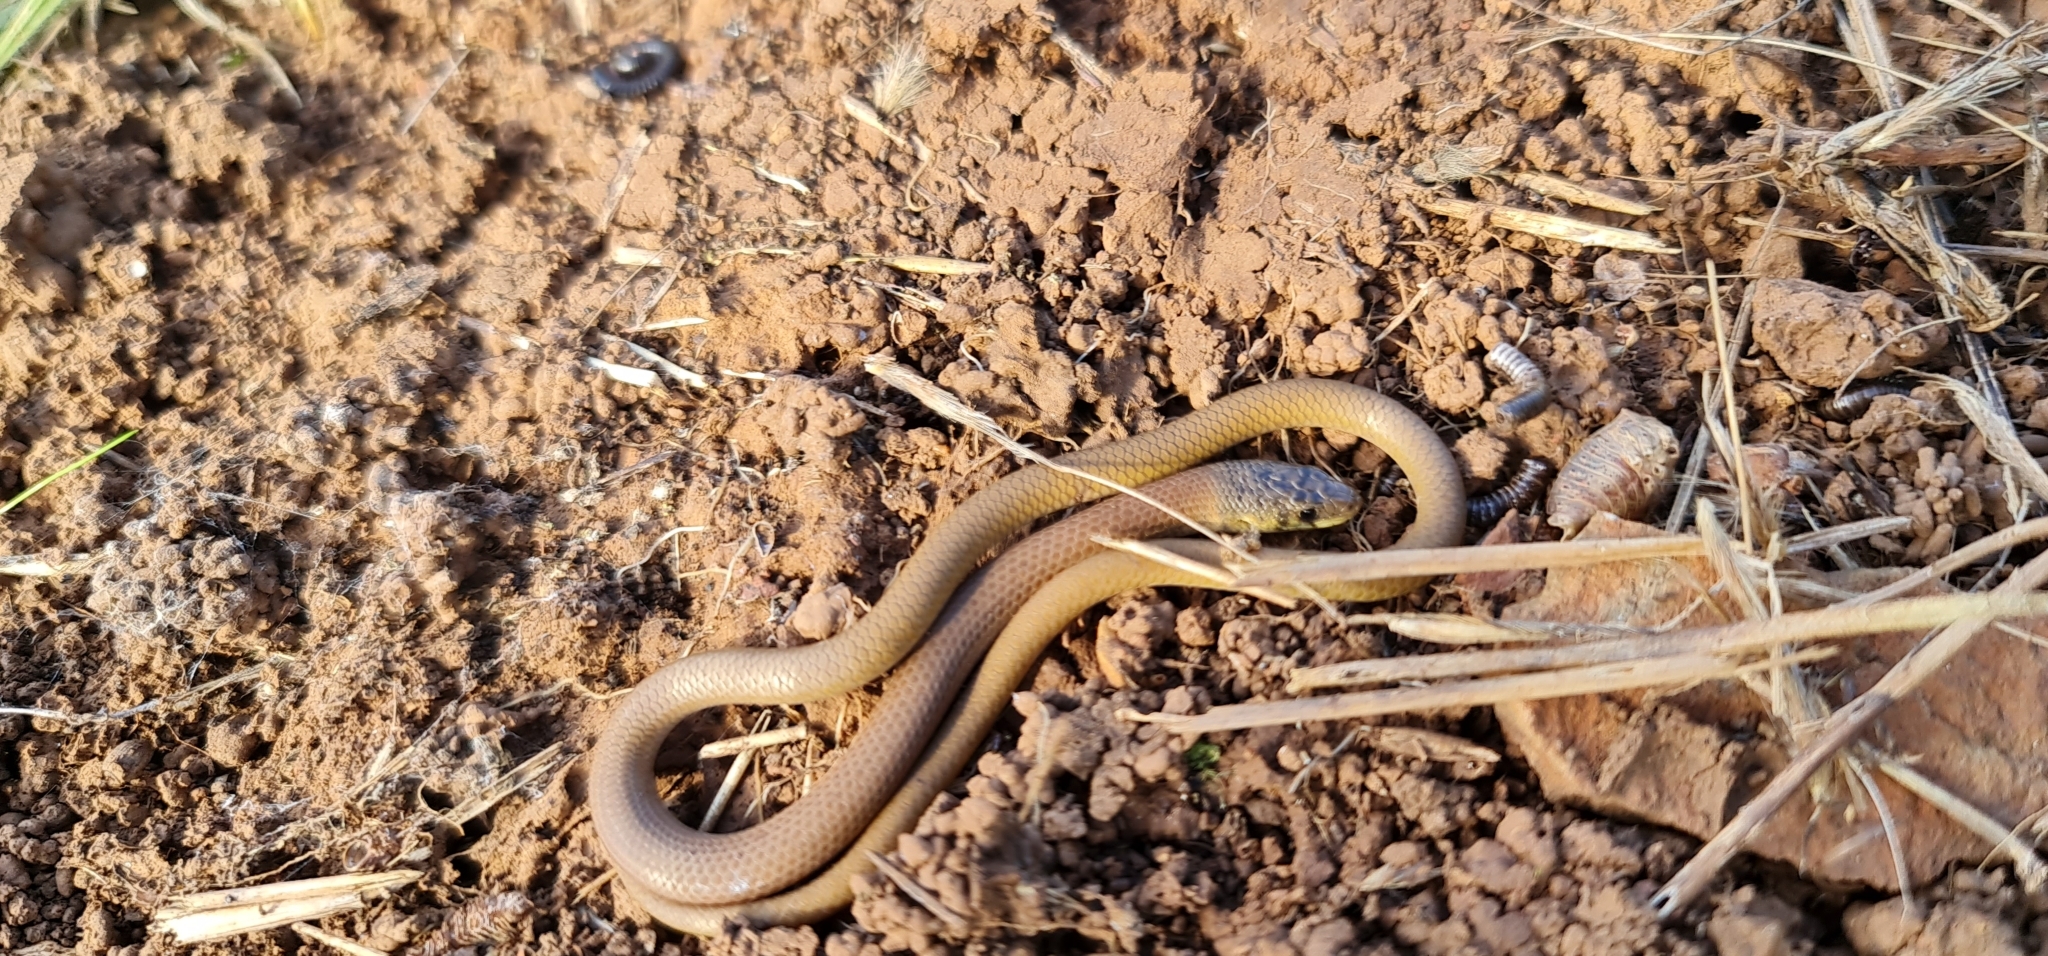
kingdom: Animalia
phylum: Chordata
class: Squamata
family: Pygopodidae
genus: Delma
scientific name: Delma molleri
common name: Gulfs delma
